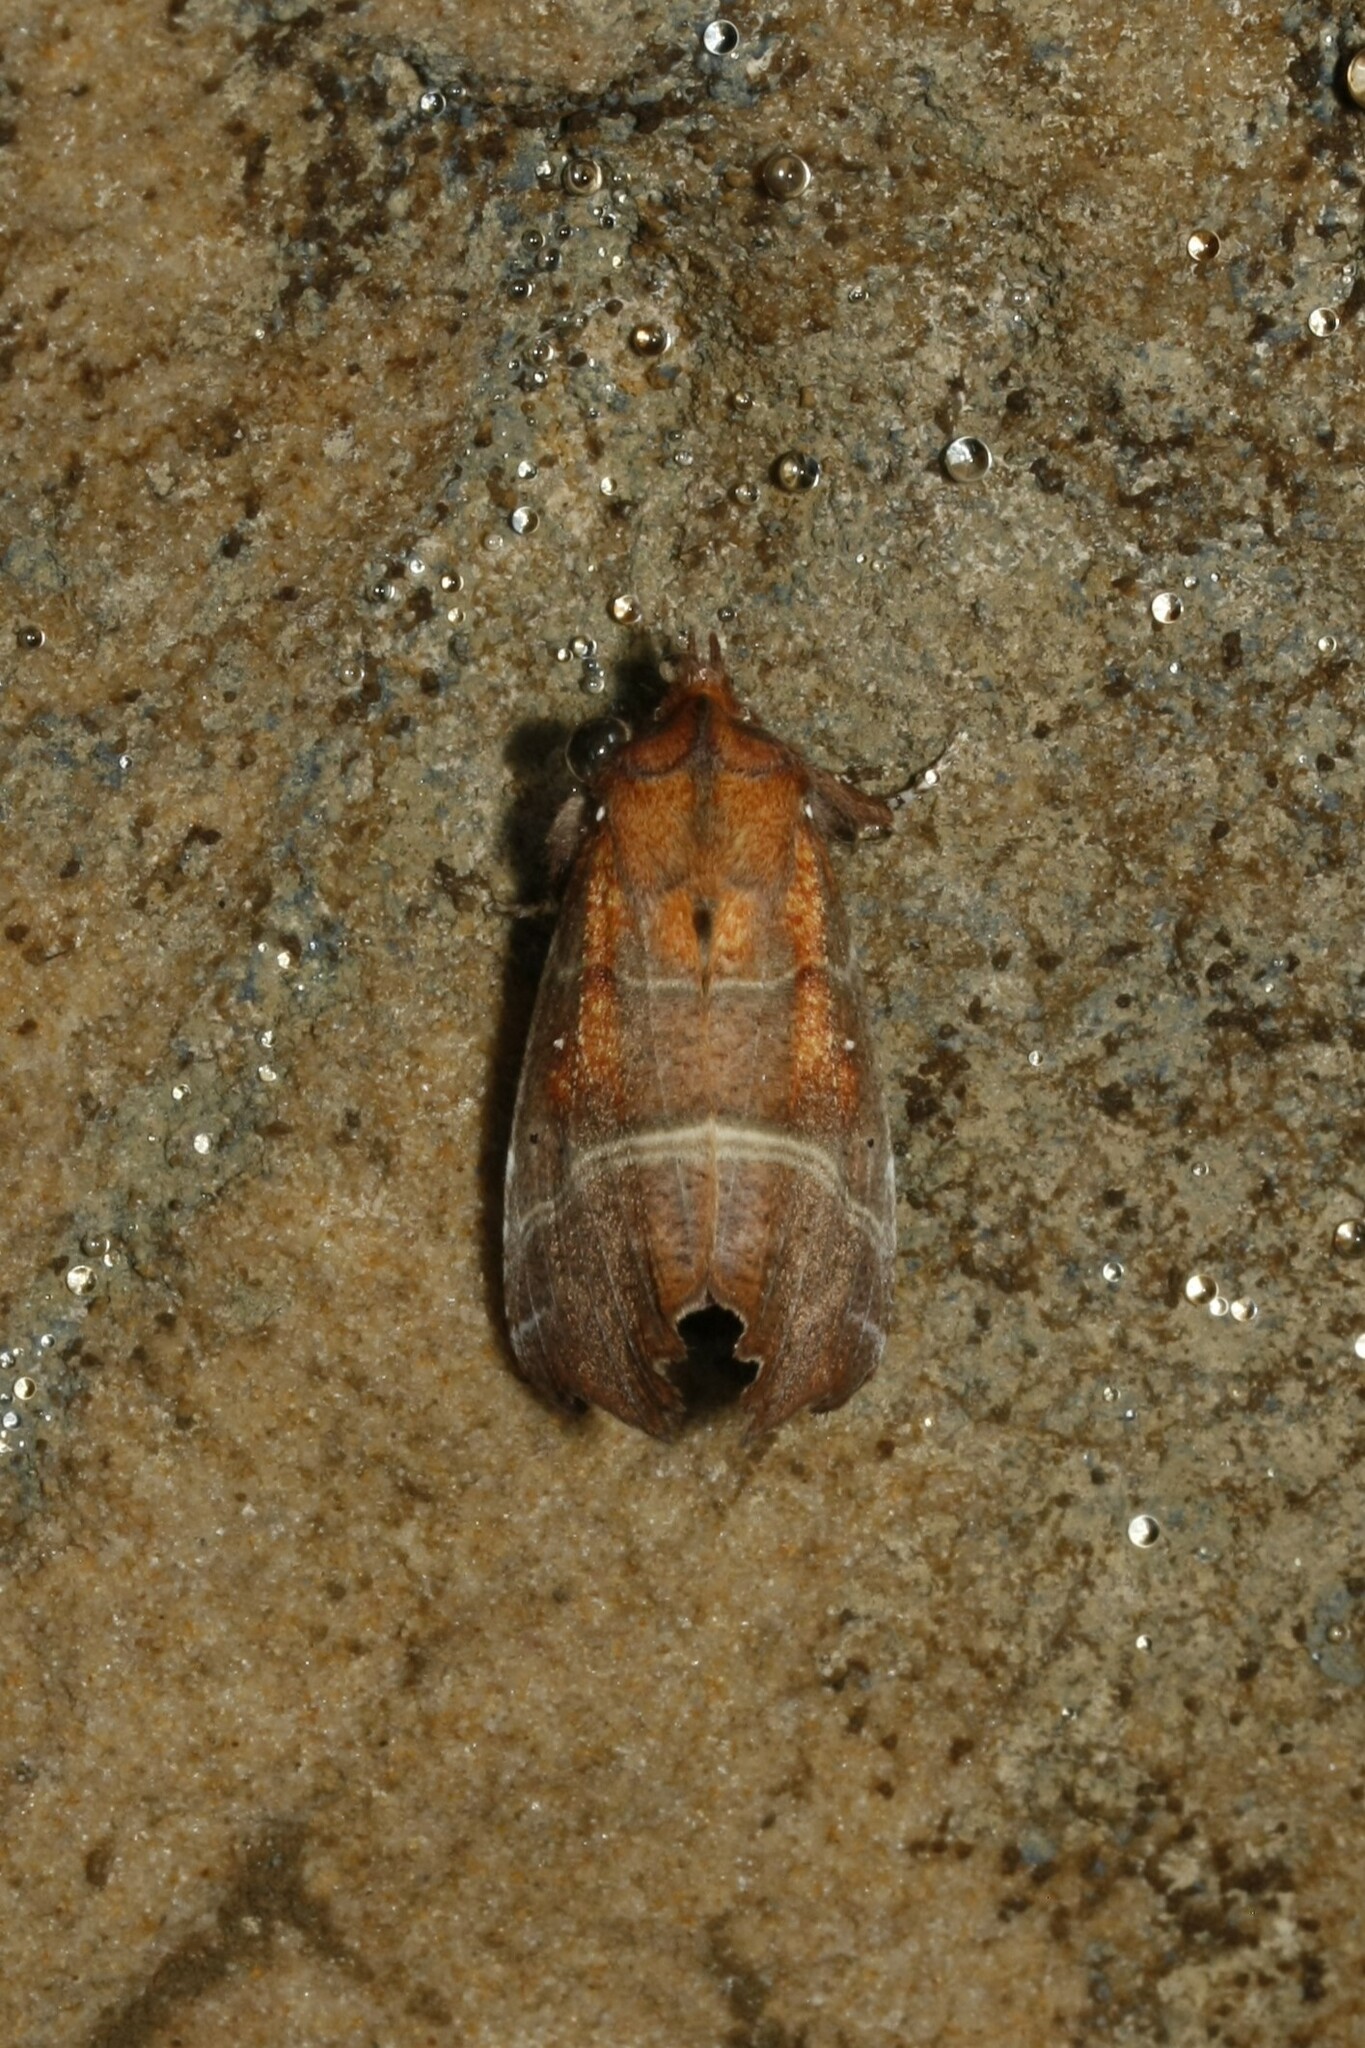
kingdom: Animalia
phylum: Arthropoda
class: Insecta
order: Lepidoptera
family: Erebidae
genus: Scoliopteryx
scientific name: Scoliopteryx libatrix
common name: Herald
